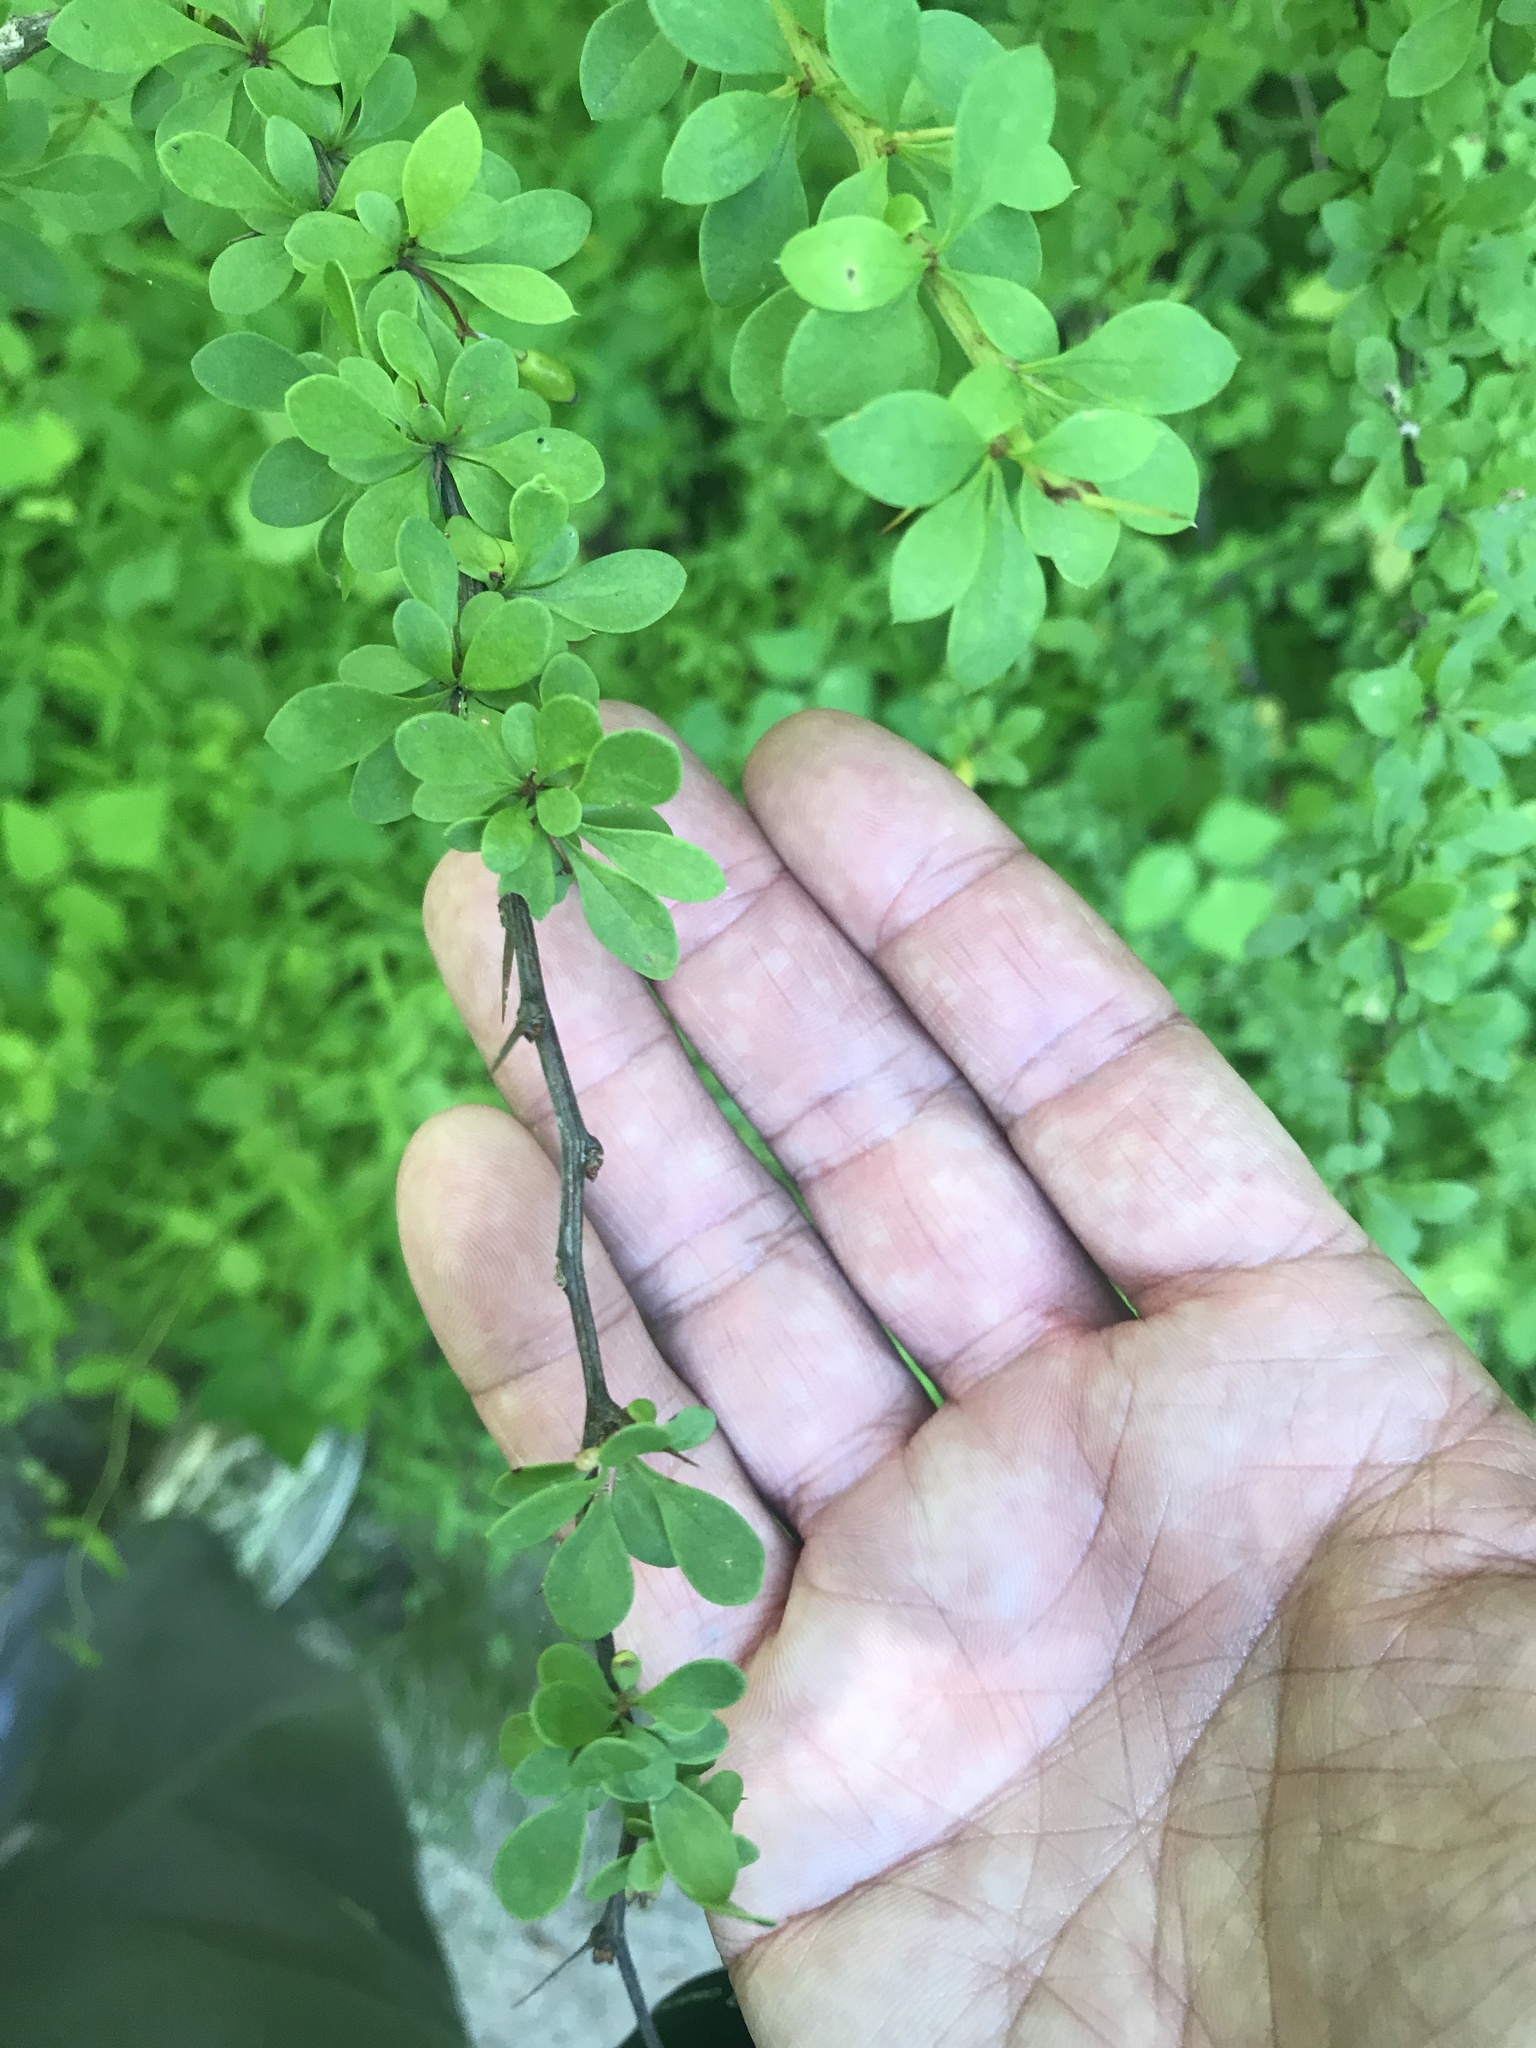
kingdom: Plantae
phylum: Tracheophyta
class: Magnoliopsida
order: Ranunculales
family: Berberidaceae
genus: Berberis
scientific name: Berberis thunbergii
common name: Japanese barberry
